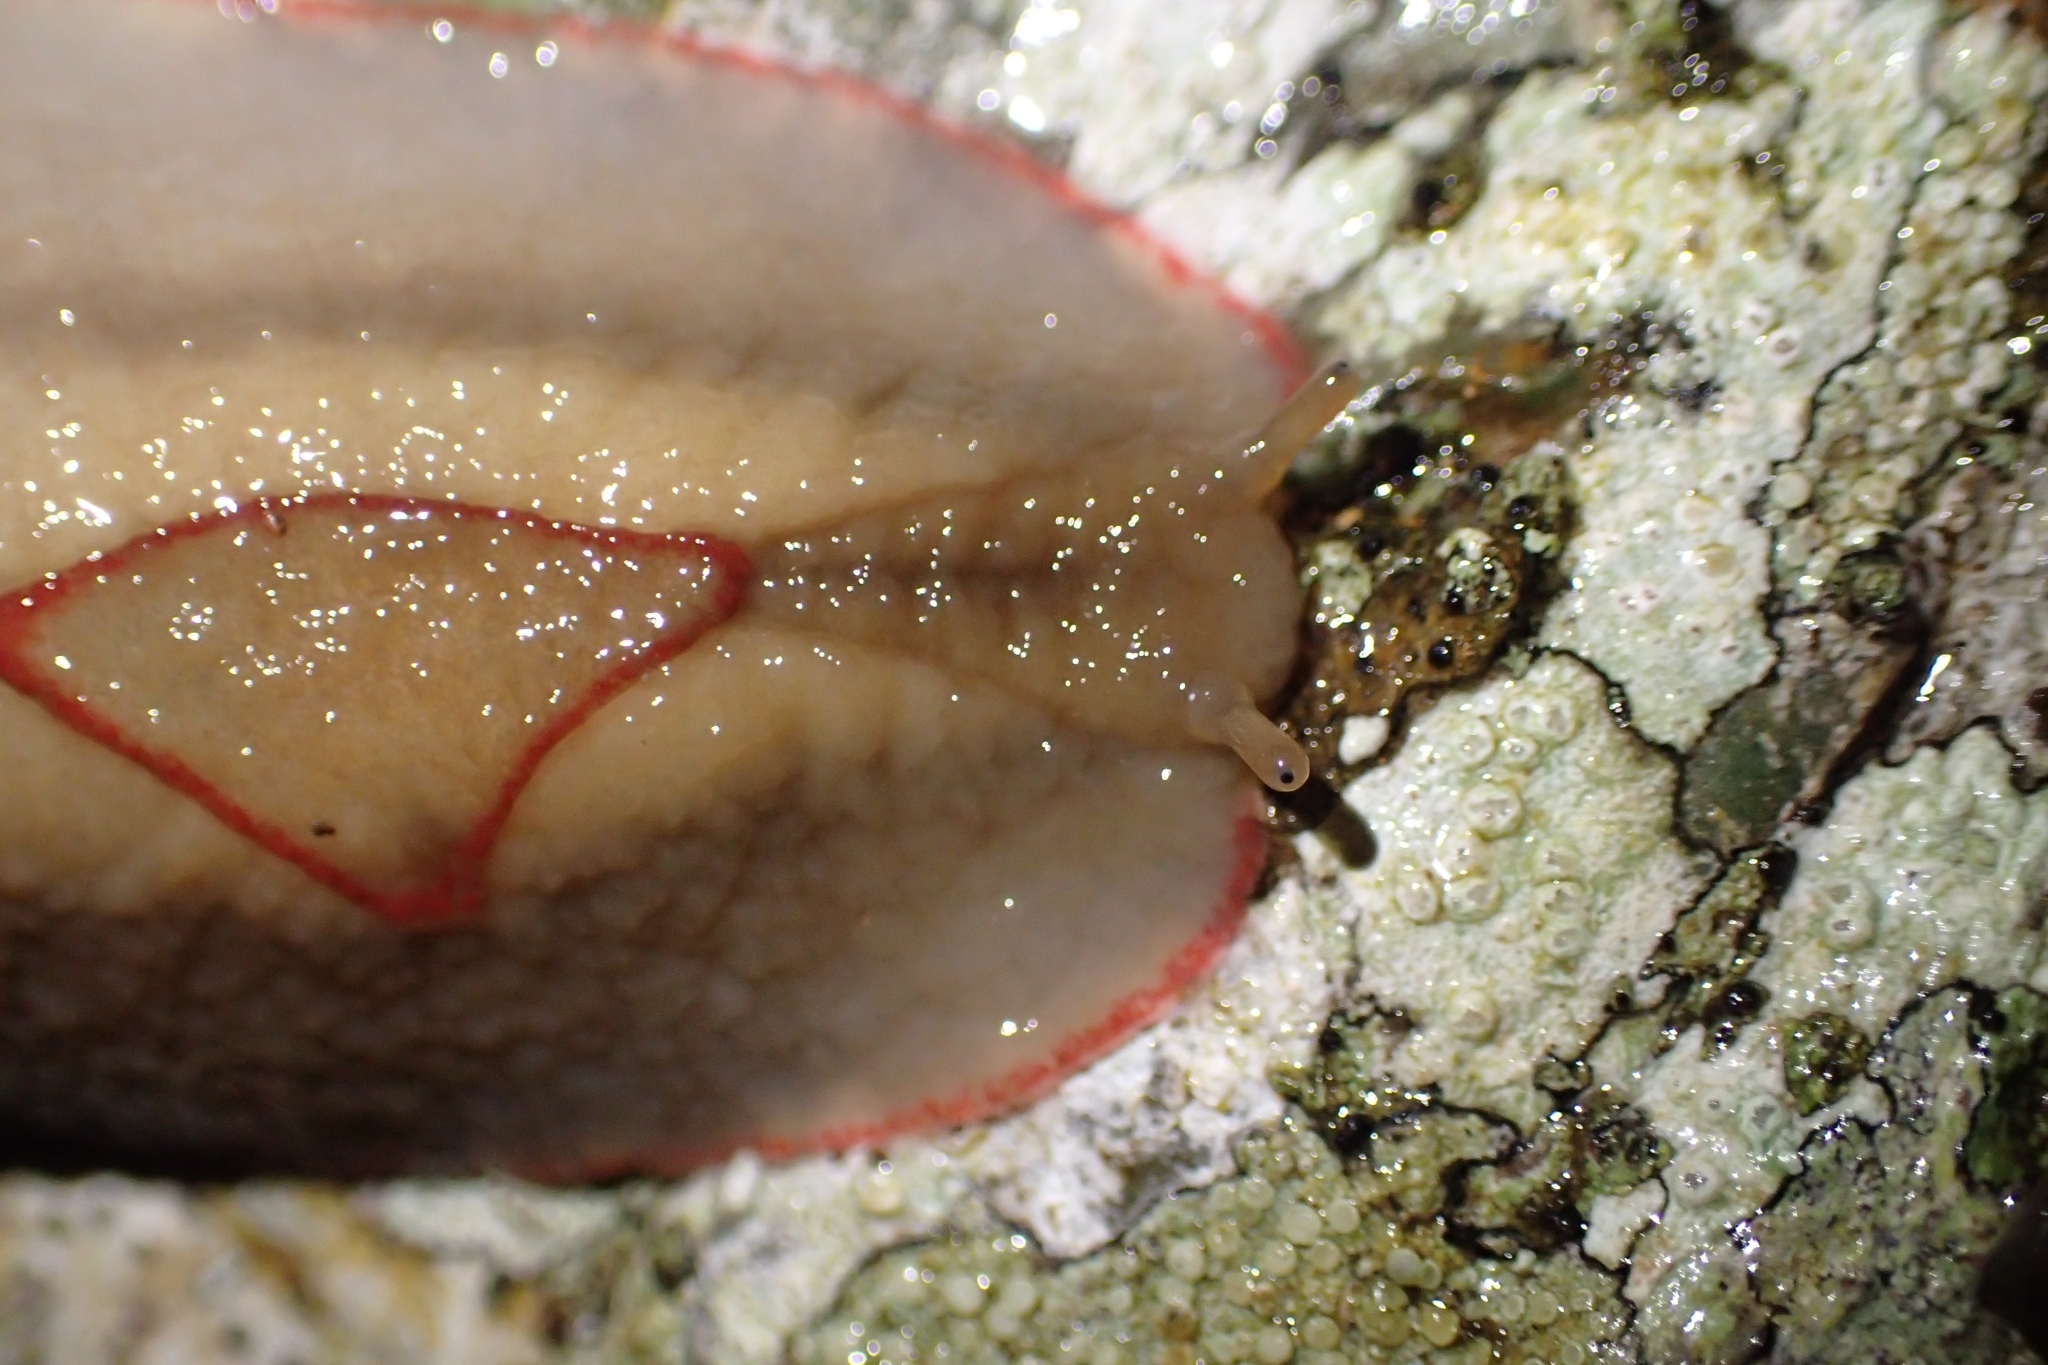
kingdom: Animalia
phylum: Mollusca
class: Gastropoda
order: Stylommatophora
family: Athoracophoridae
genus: Triboniophorus
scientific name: Triboniophorus graeffei
